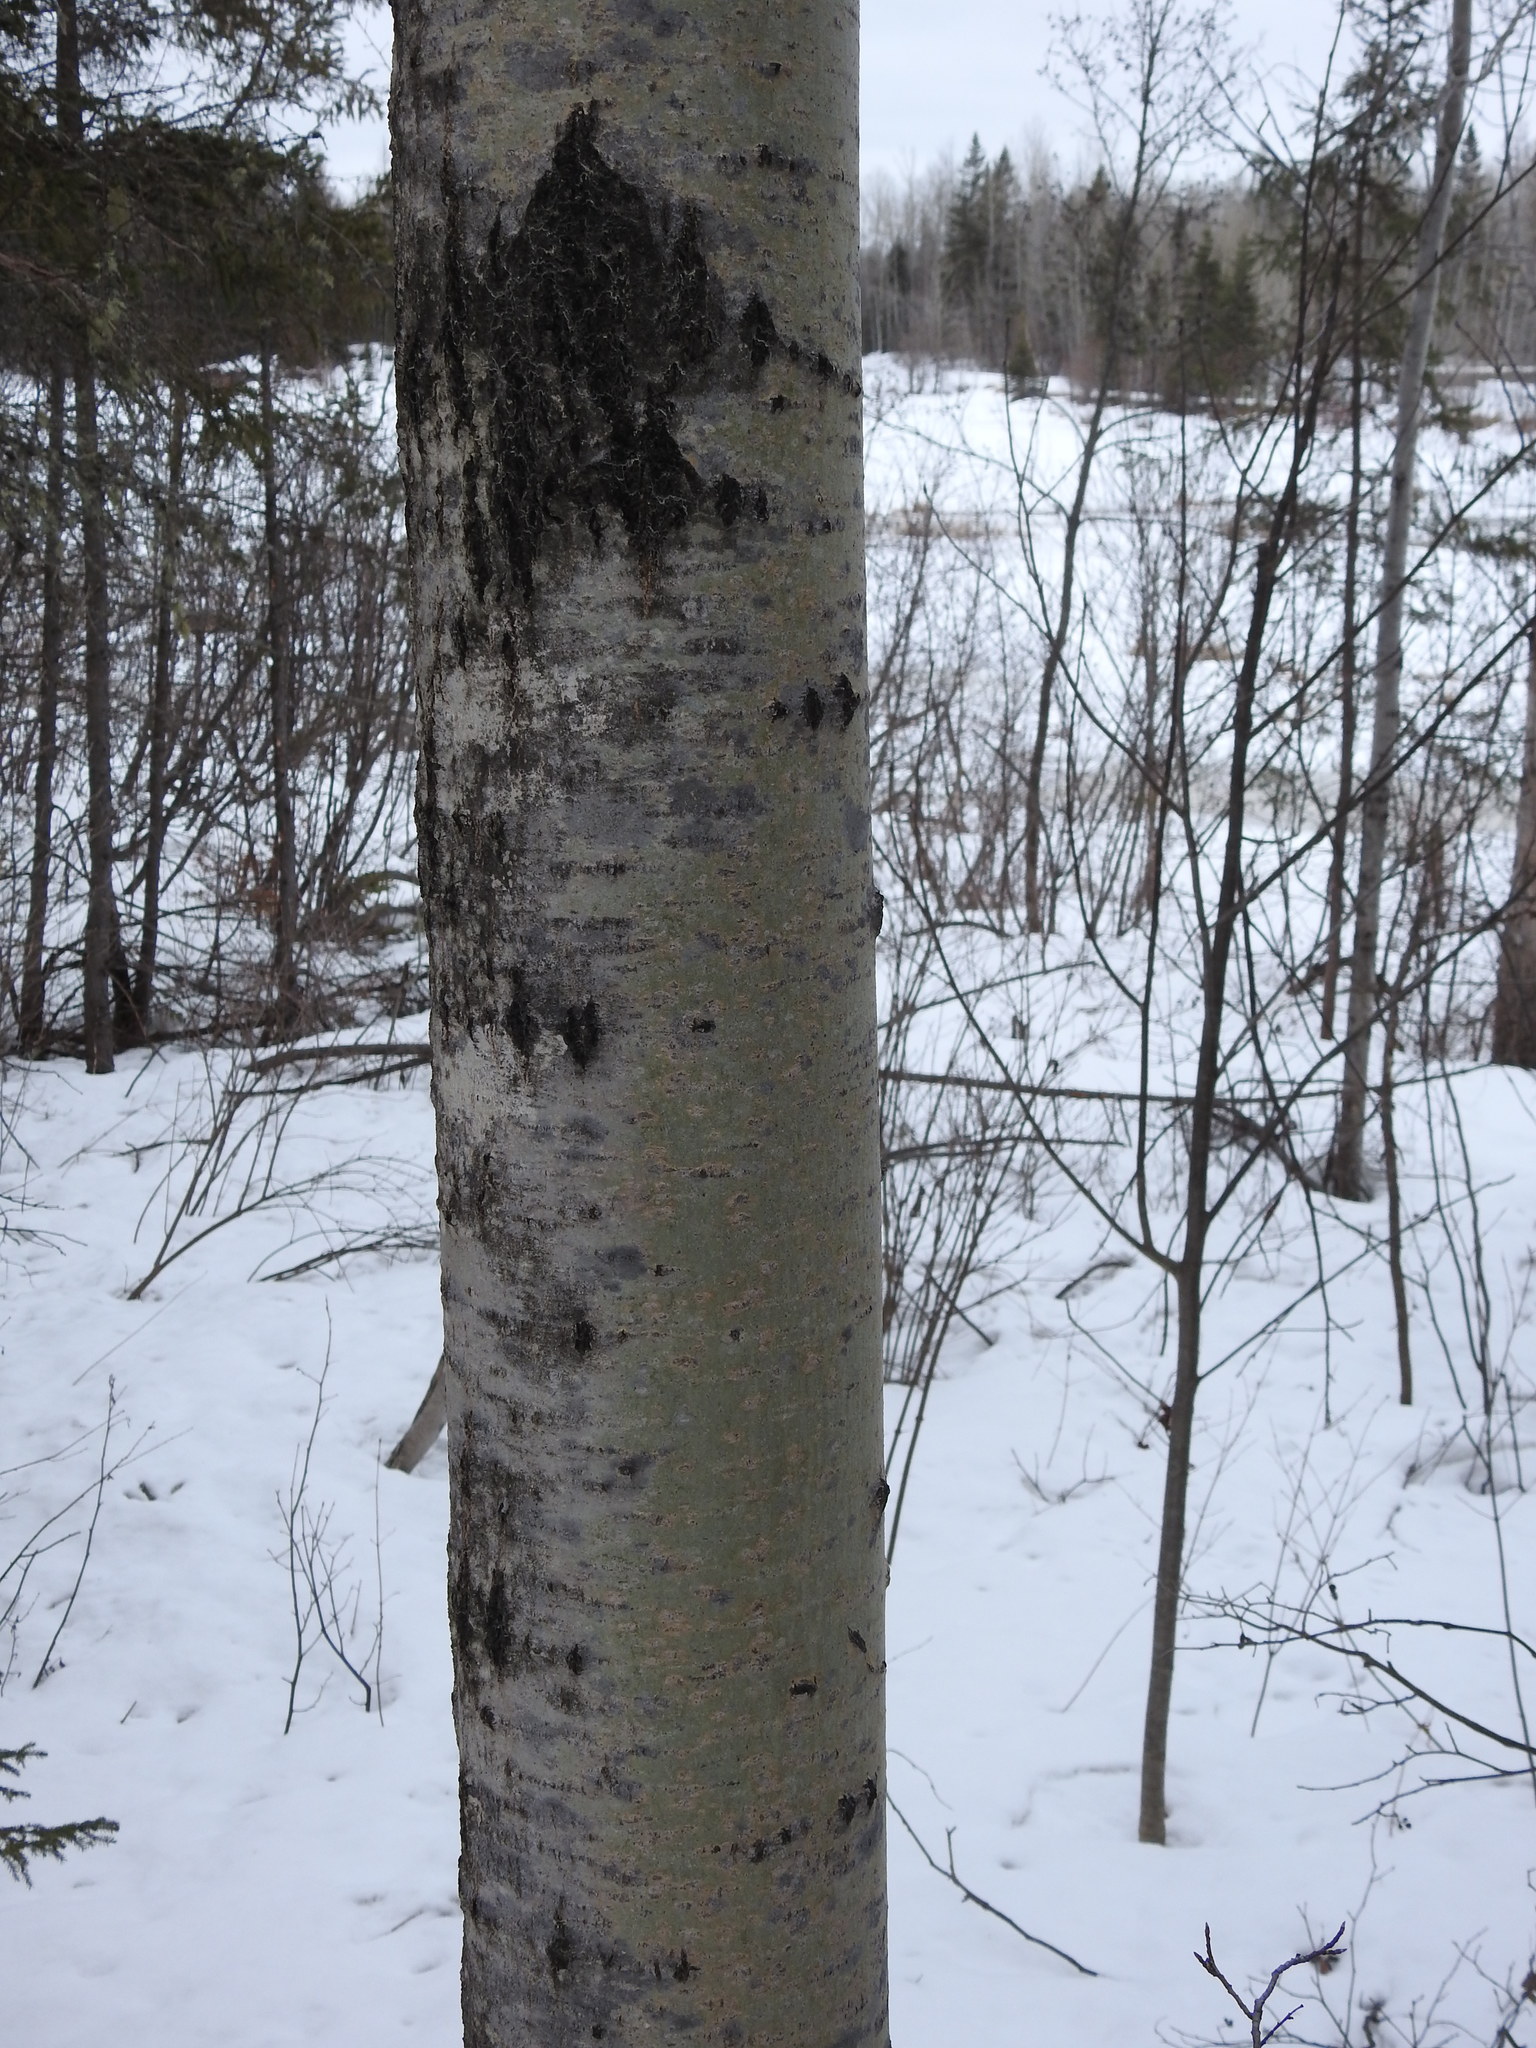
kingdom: Plantae
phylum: Tracheophyta
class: Magnoliopsida
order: Malpighiales
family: Salicaceae
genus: Populus
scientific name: Populus tremuloides
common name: Quaking aspen
